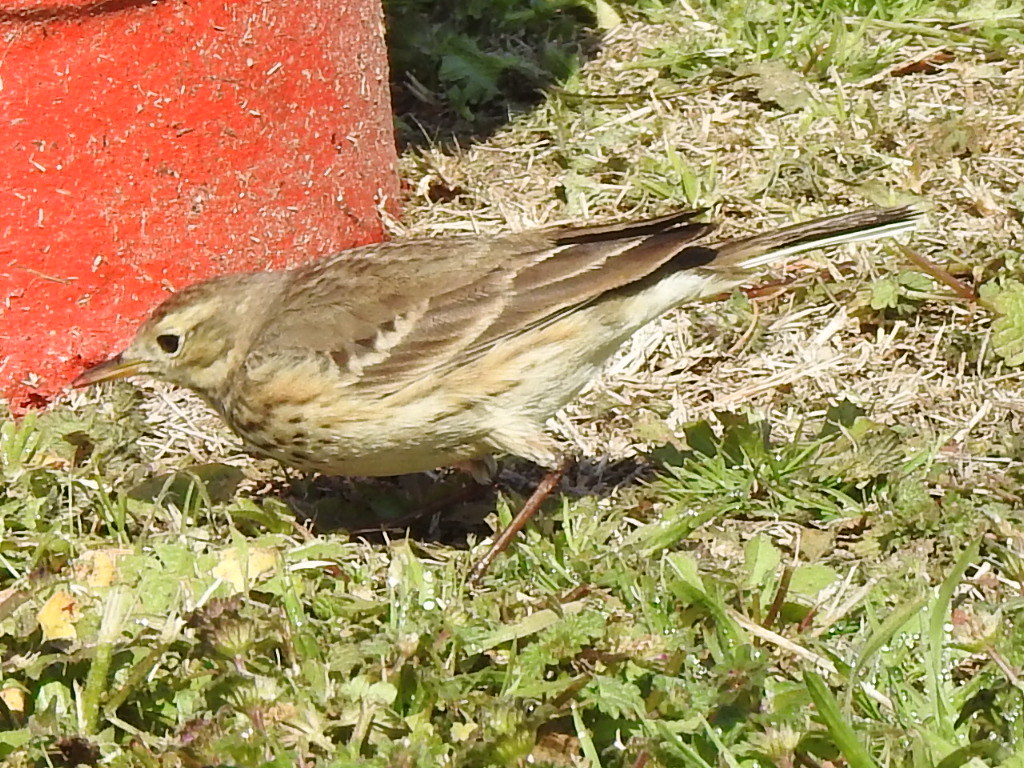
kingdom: Animalia
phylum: Chordata
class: Aves
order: Passeriformes
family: Motacillidae
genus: Anthus
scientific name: Anthus rubescens
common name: Buff-bellied pipit
